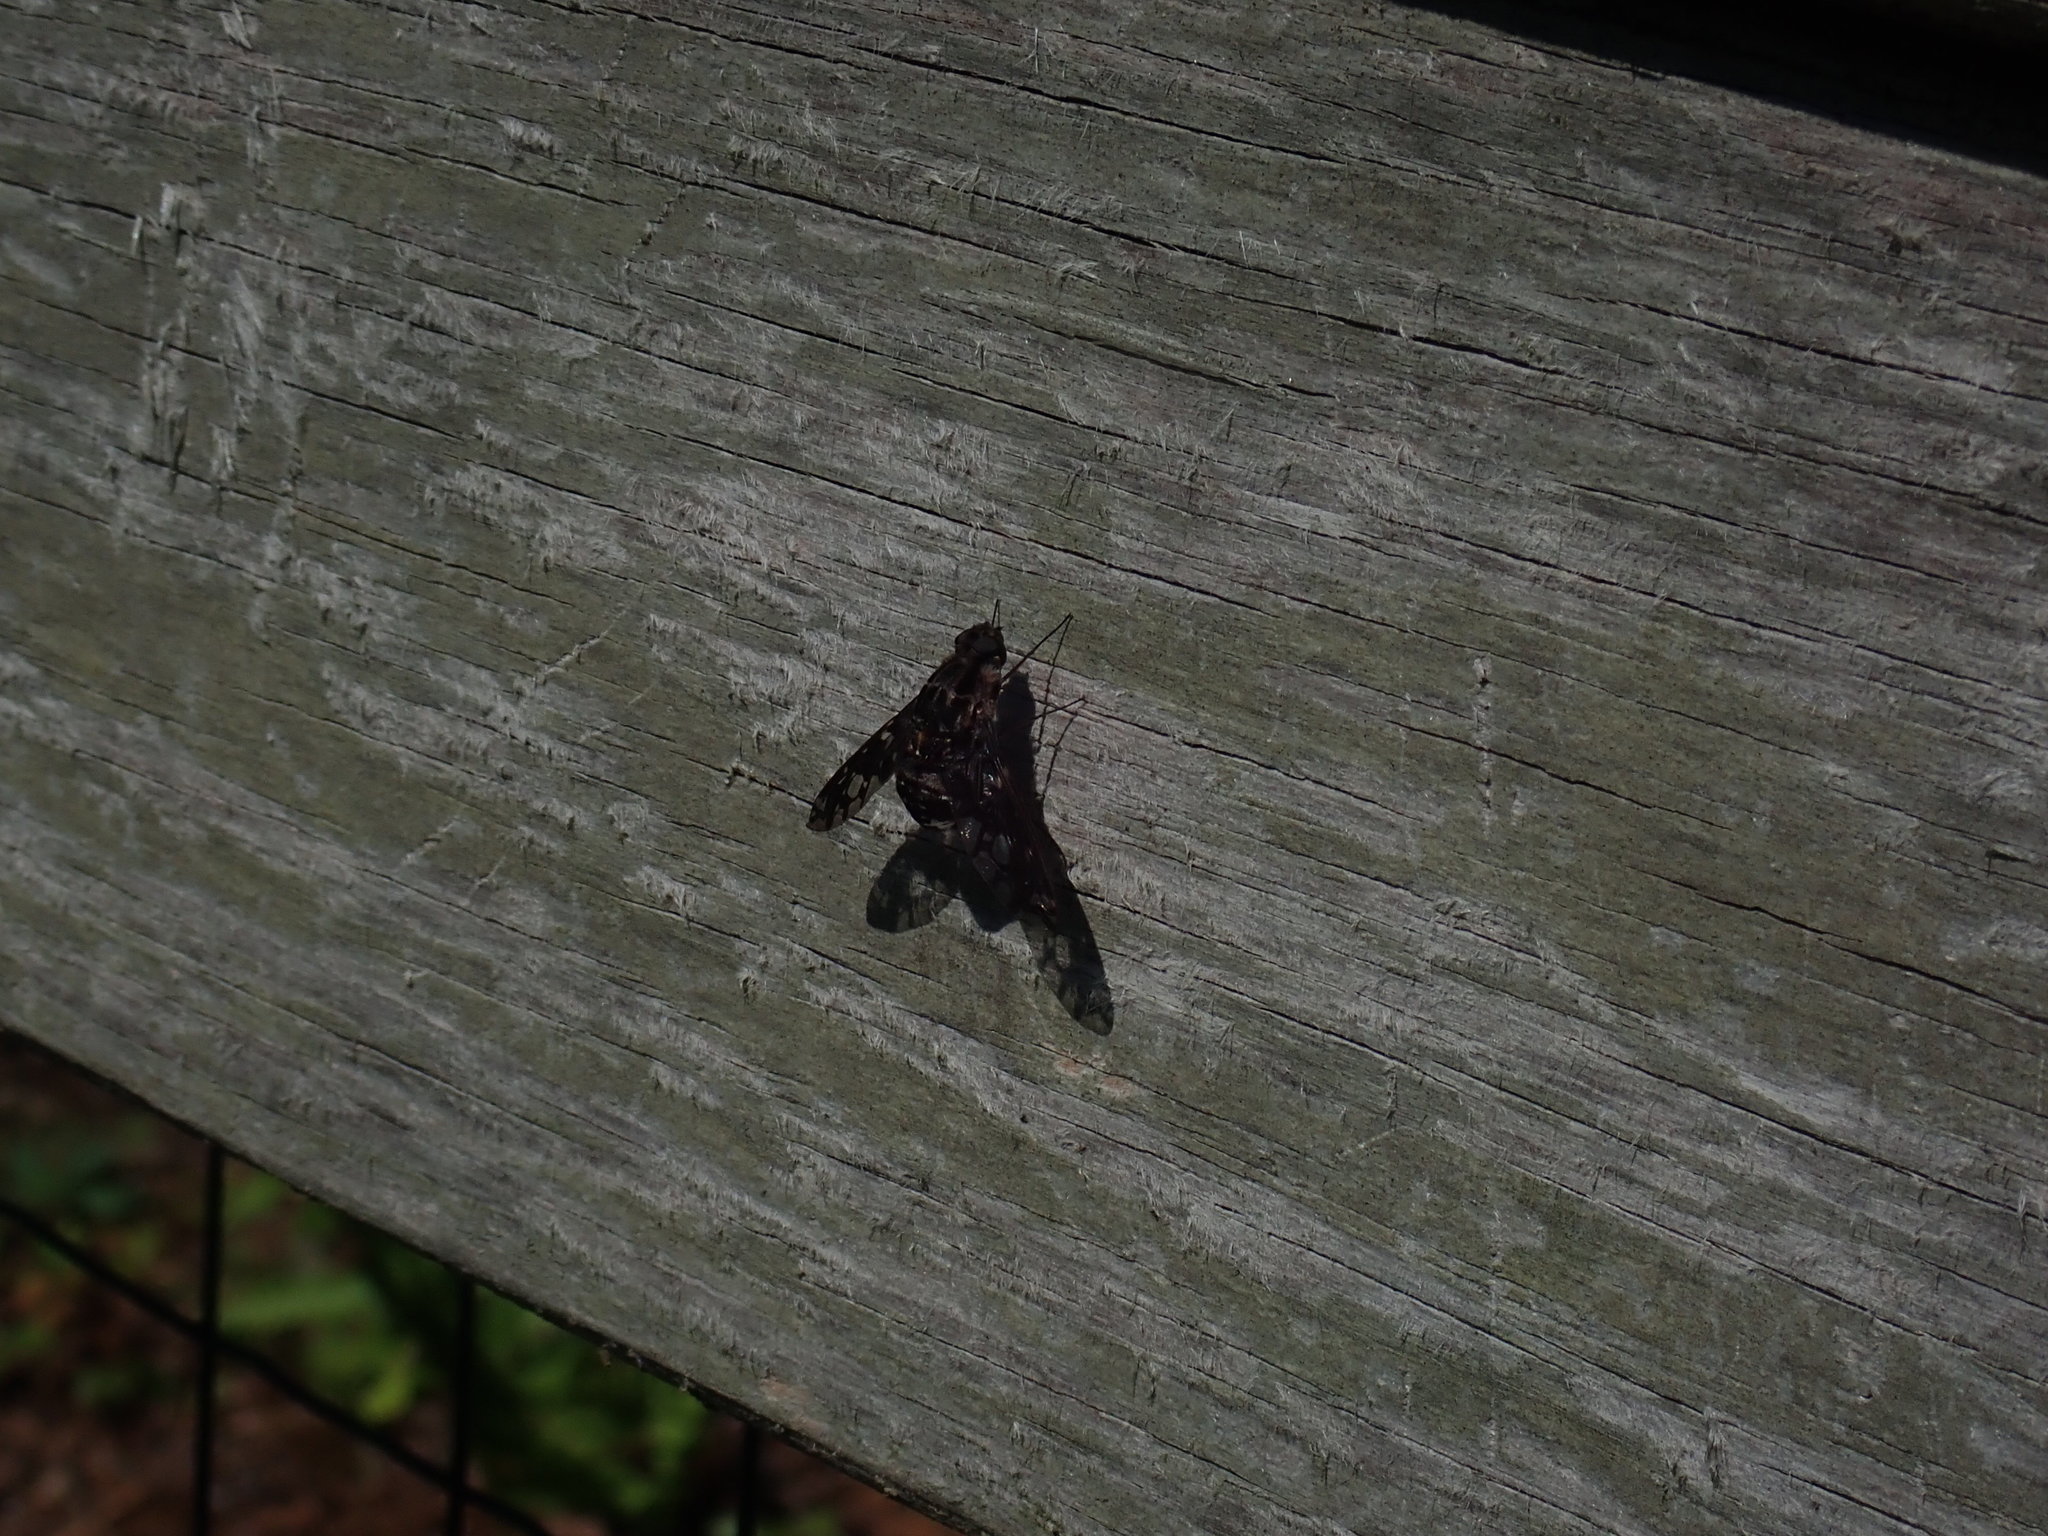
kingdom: Animalia
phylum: Arthropoda
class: Insecta
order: Diptera
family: Bombyliidae
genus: Xenox
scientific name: Xenox tigrinus
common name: Tiger bee fly
